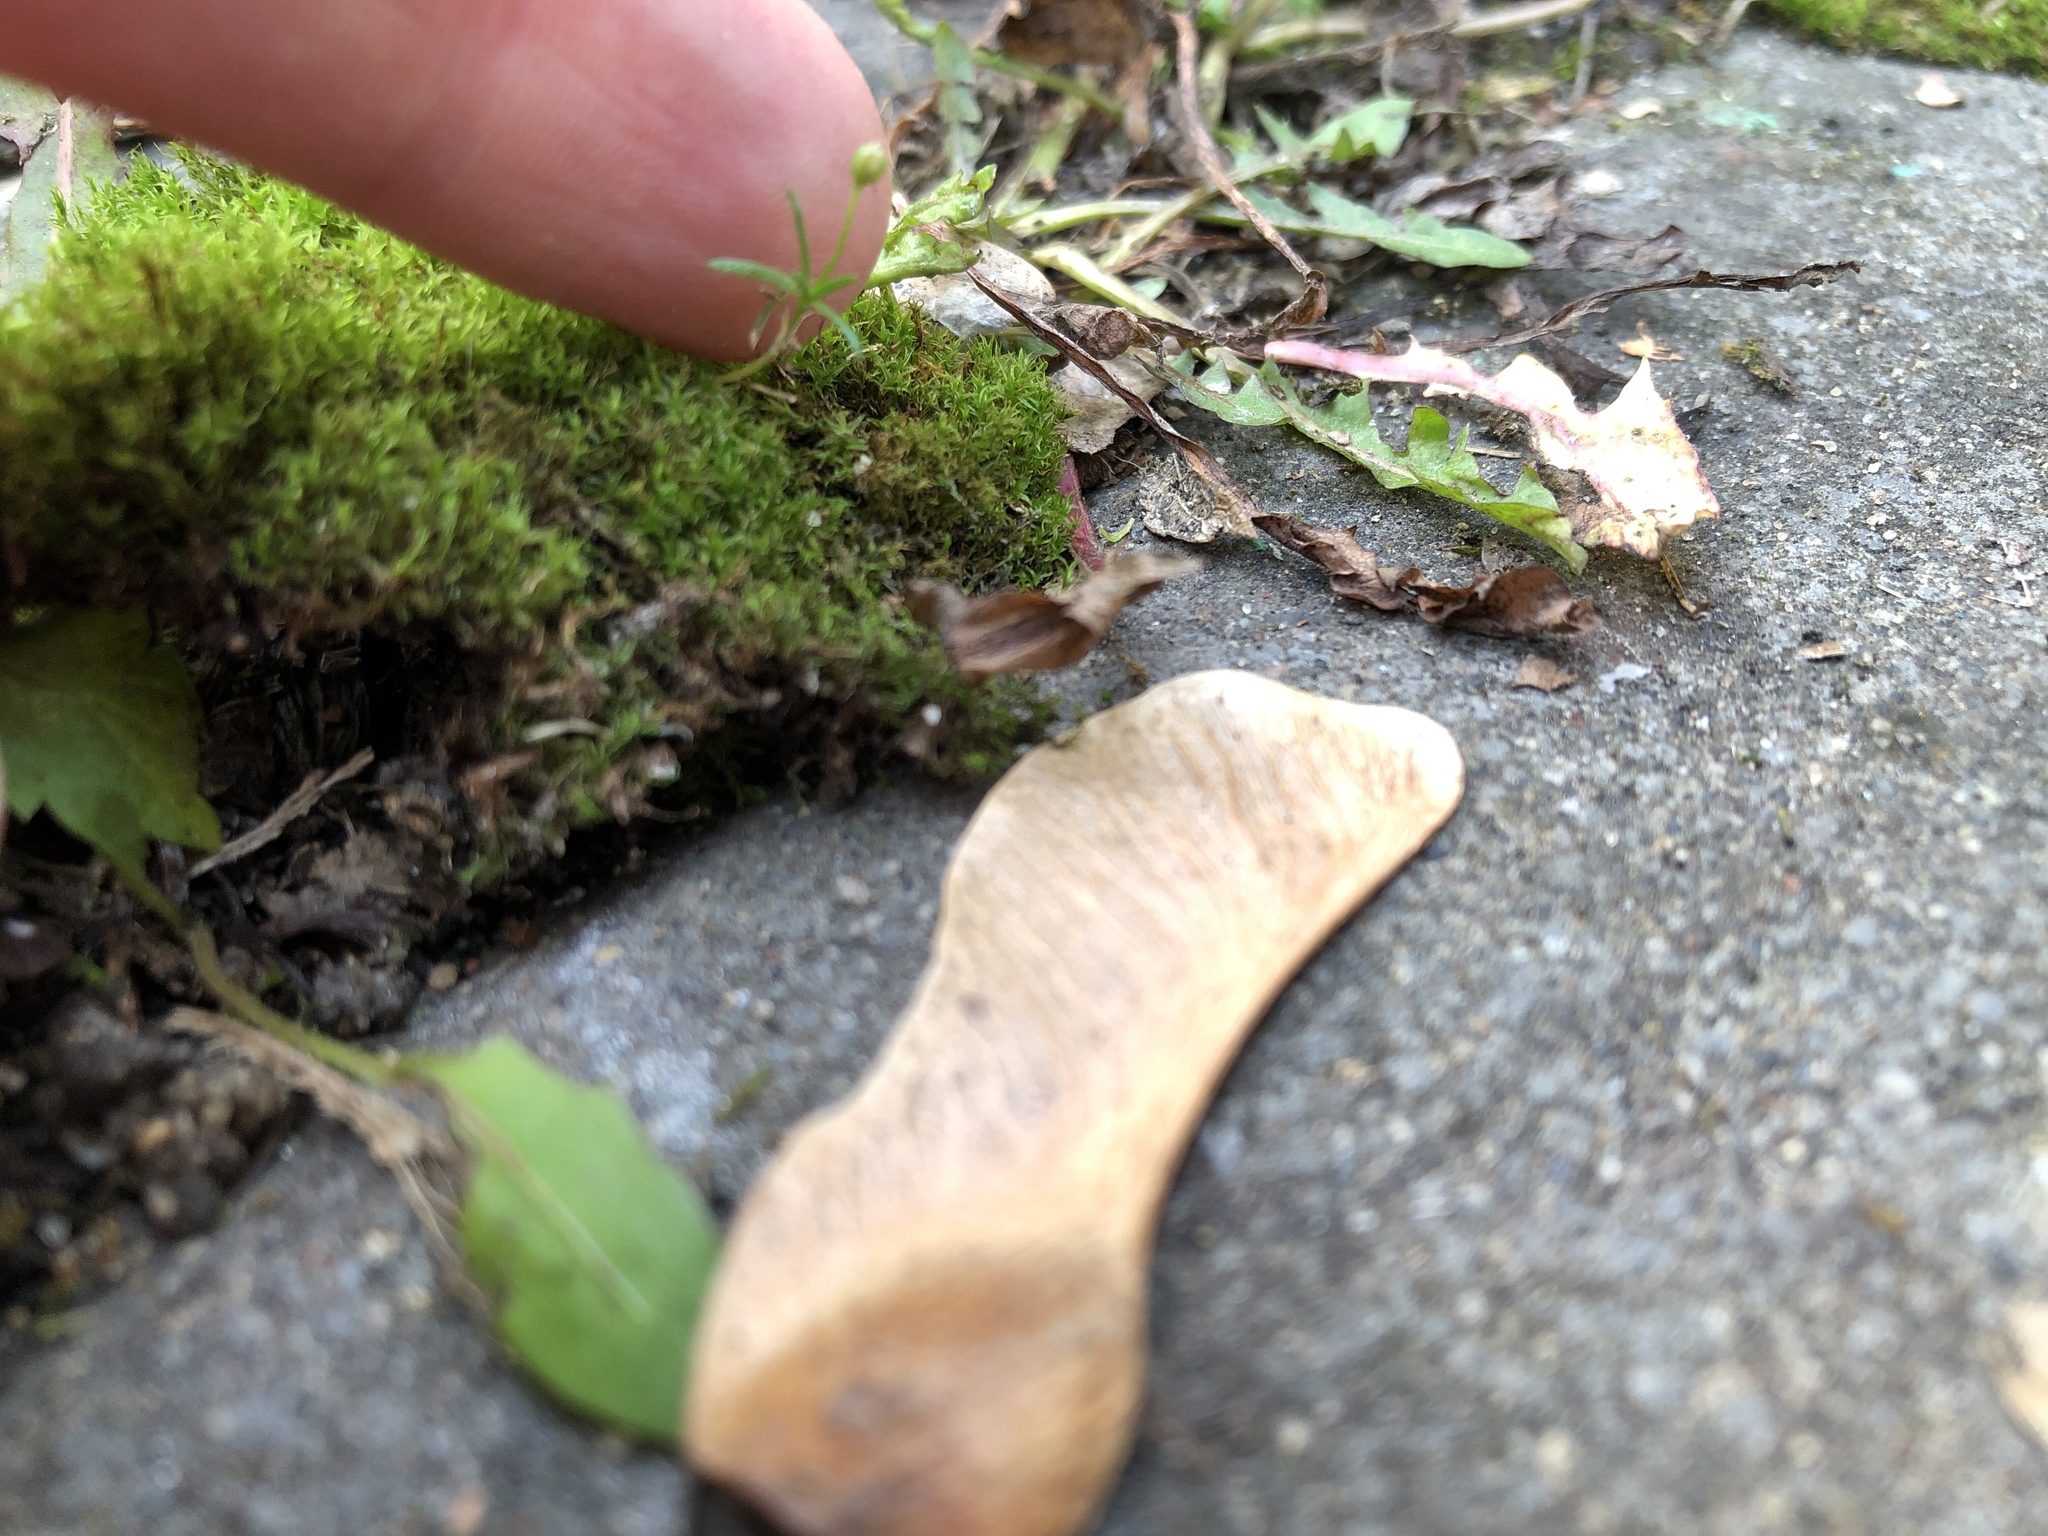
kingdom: Plantae
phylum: Tracheophyta
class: Magnoliopsida
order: Caryophyllales
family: Caryophyllaceae
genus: Sagina
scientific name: Sagina procumbens
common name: Procumbent pearlwort
